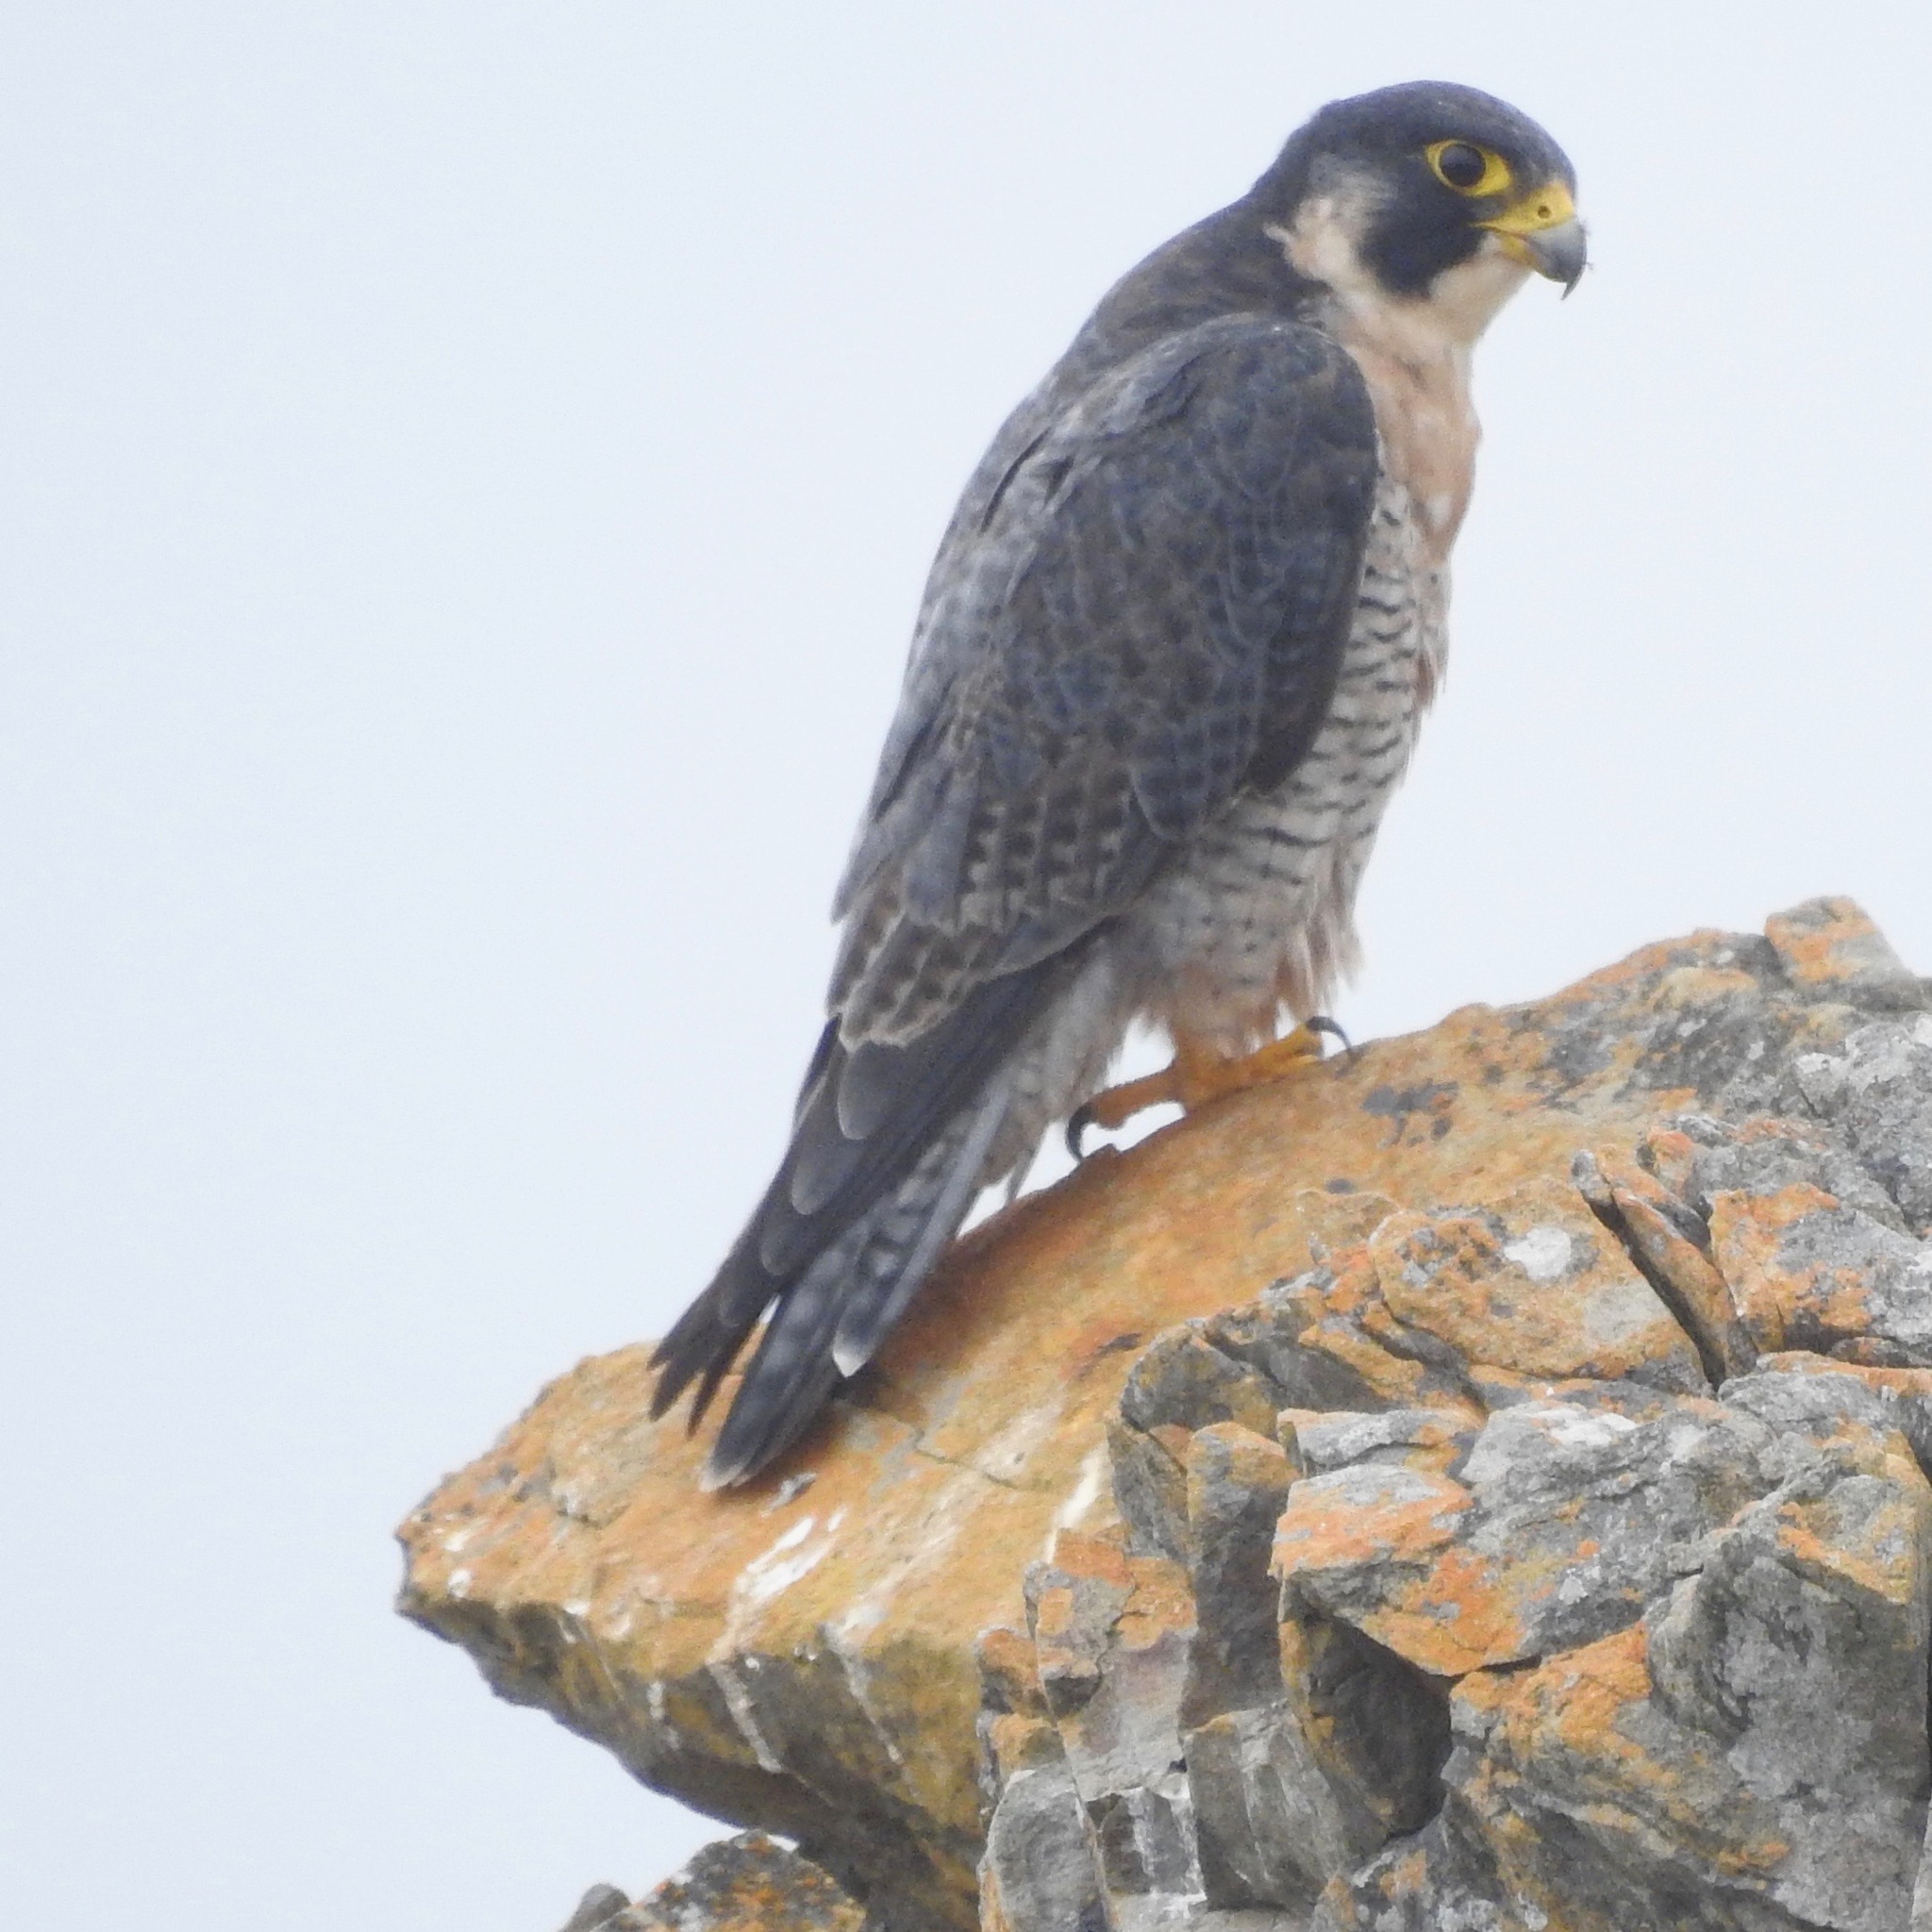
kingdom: Animalia
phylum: Chordata
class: Aves
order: Falconiformes
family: Falconidae
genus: Falco
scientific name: Falco peregrinus
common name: Peregrine falcon
